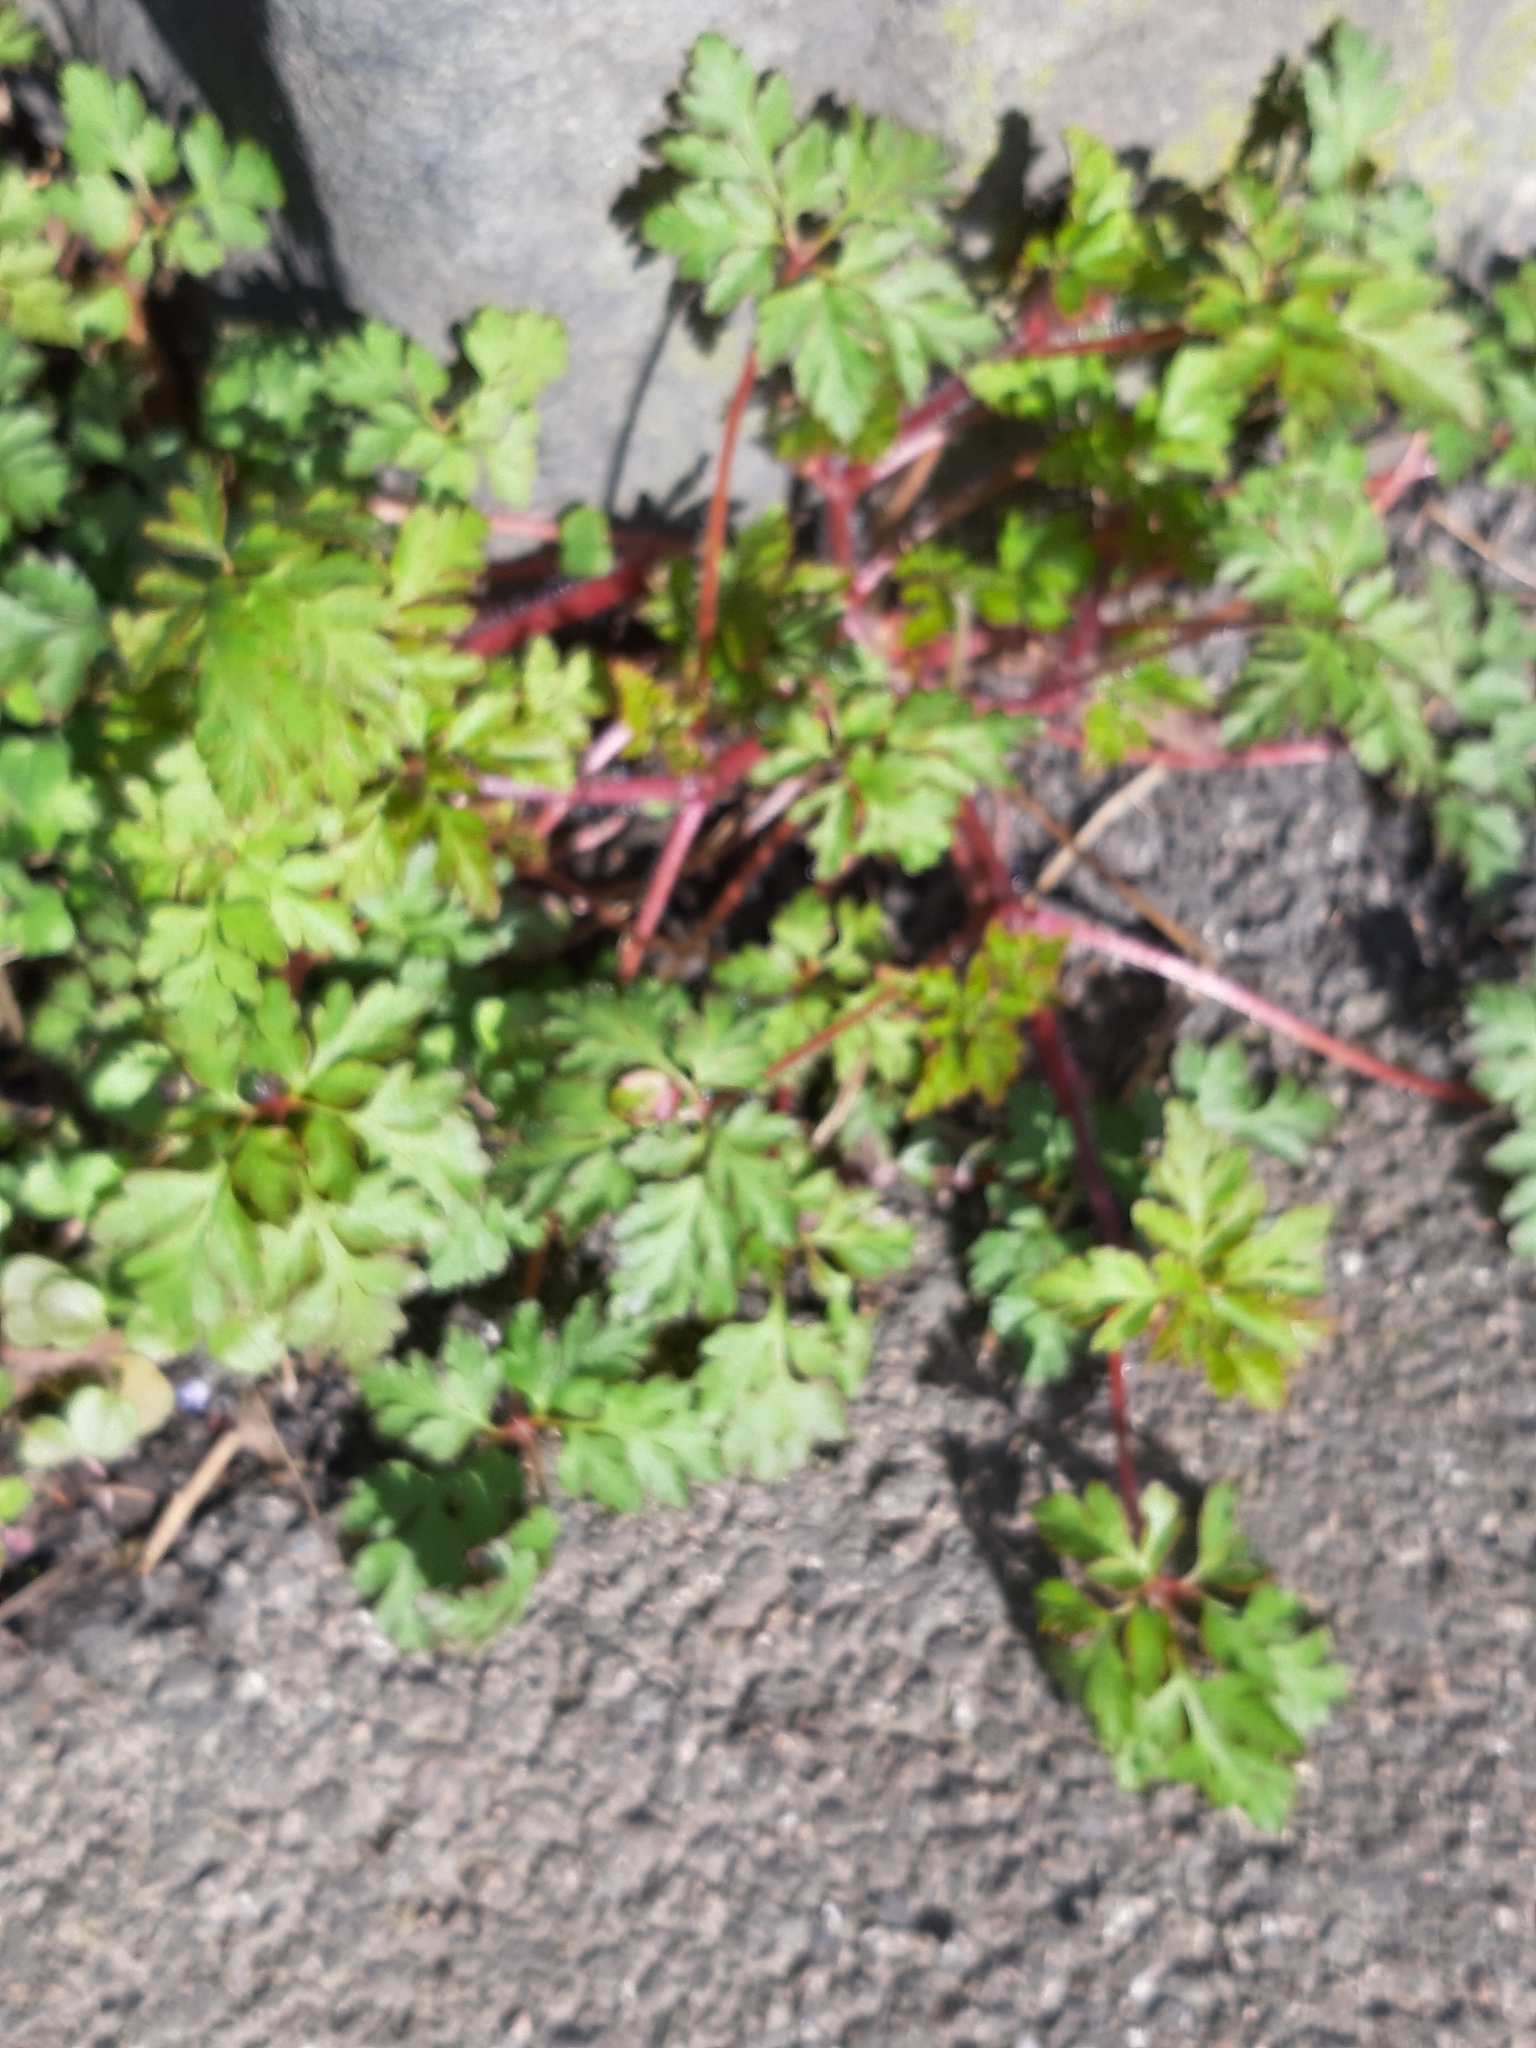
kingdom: Plantae
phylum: Tracheophyta
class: Magnoliopsida
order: Geraniales
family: Geraniaceae
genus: Geranium
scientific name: Geranium robertianum
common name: Herb-robert
